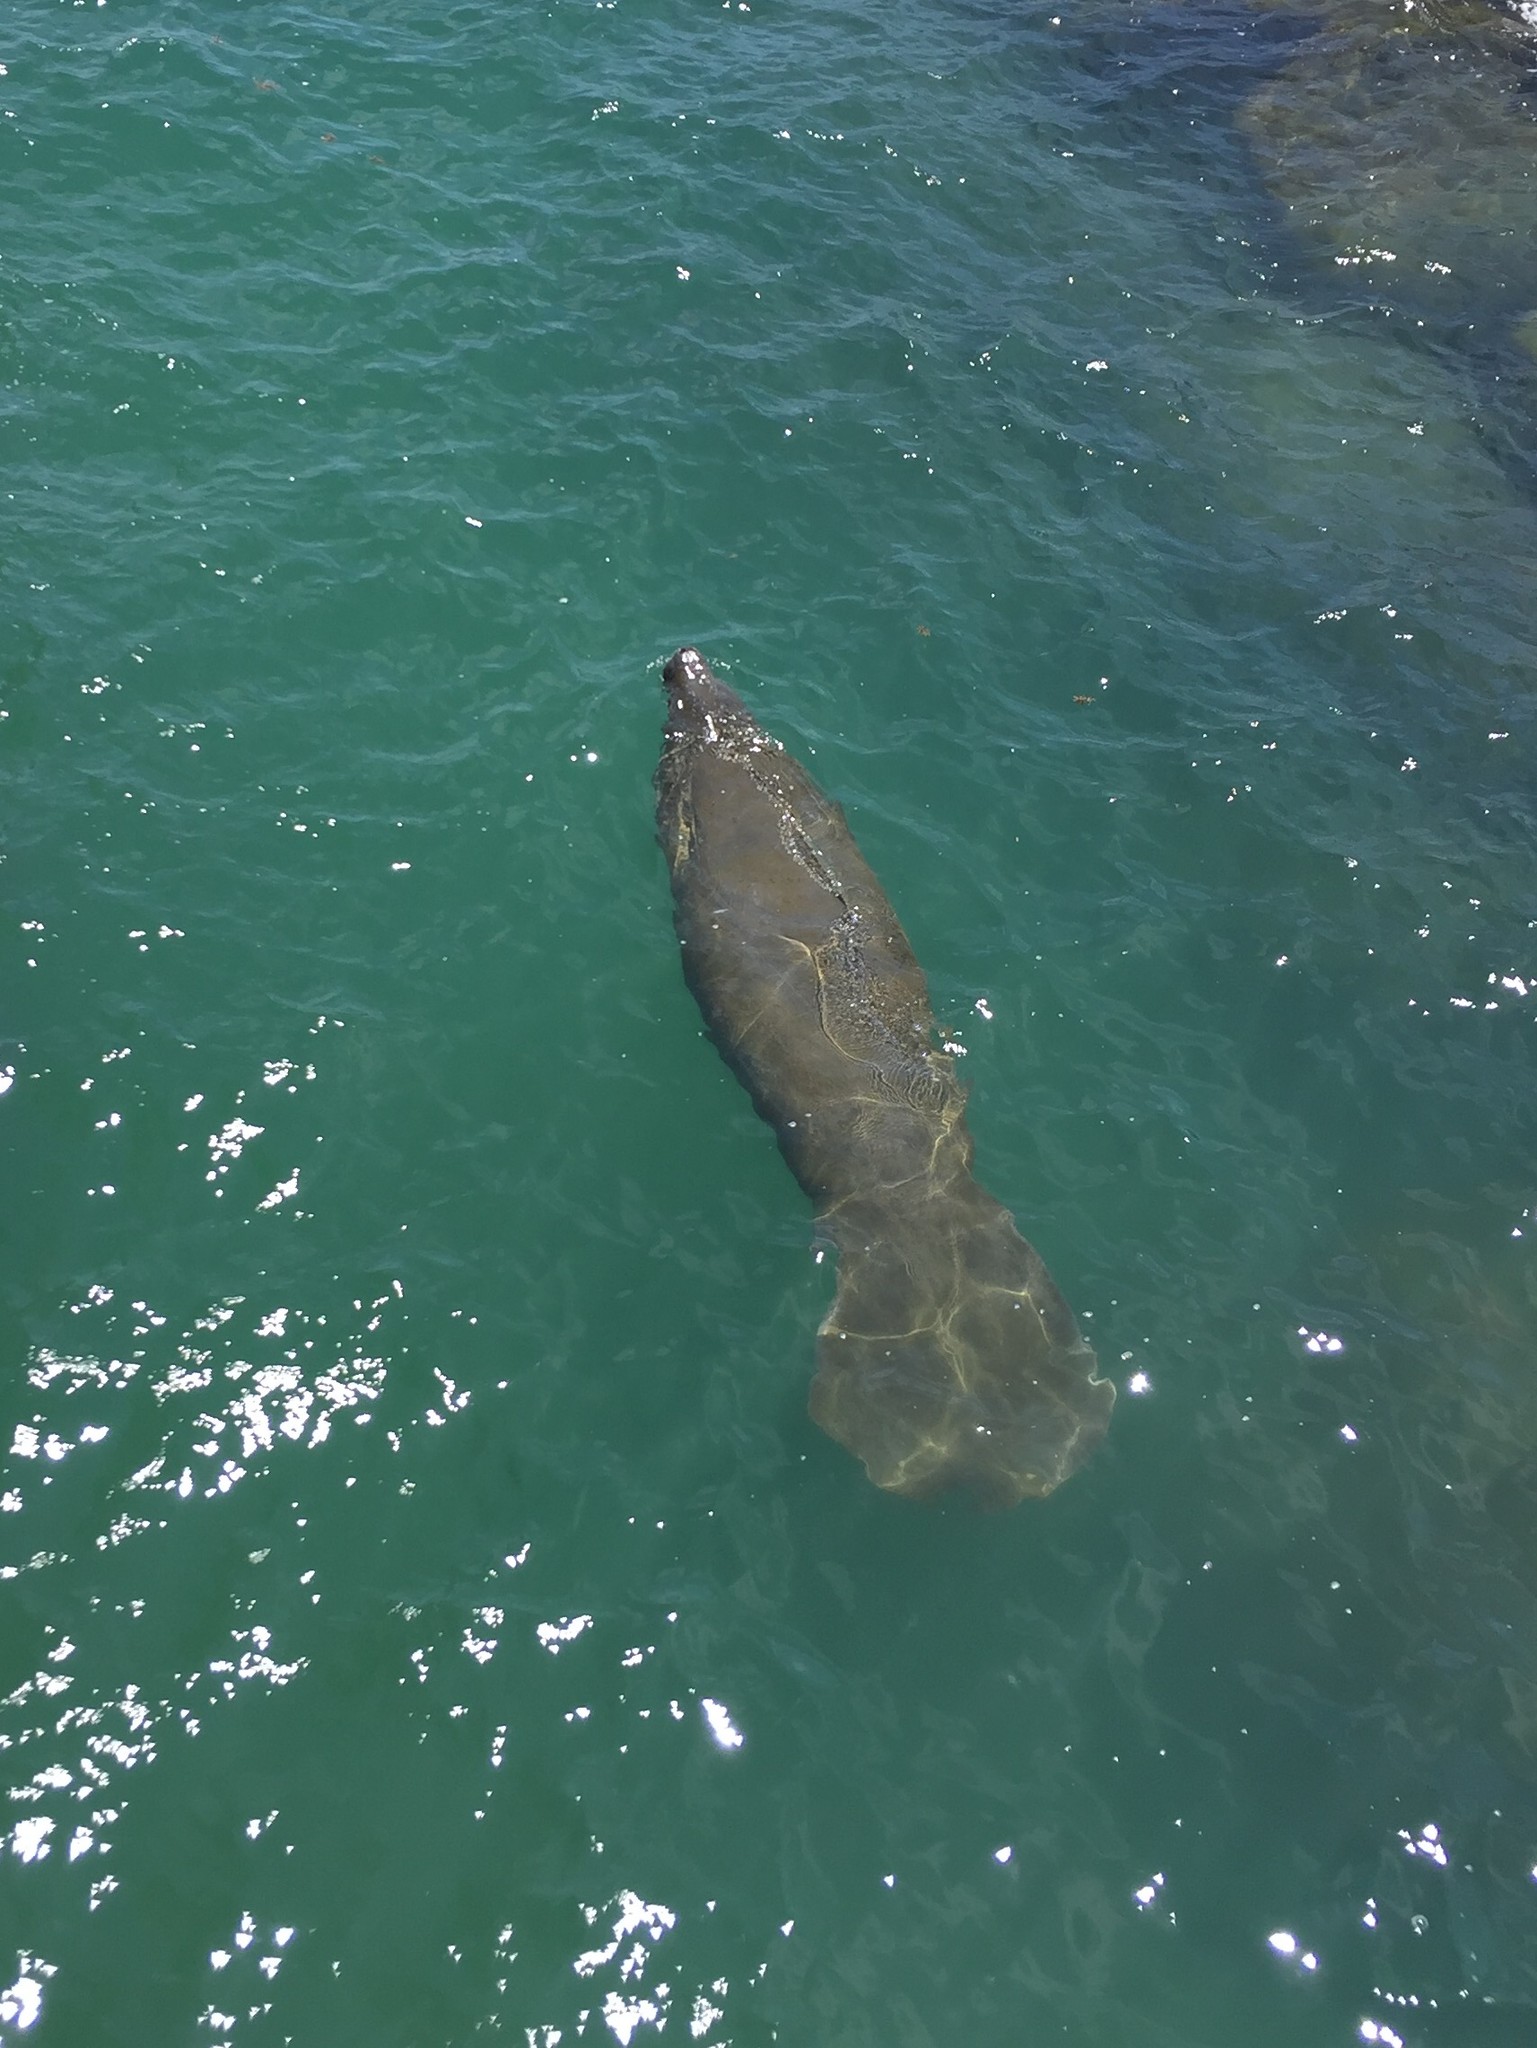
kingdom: Animalia
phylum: Chordata
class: Mammalia
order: Sirenia
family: Trichechidae
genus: Trichechus
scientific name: Trichechus manatus
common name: West indian manatee
